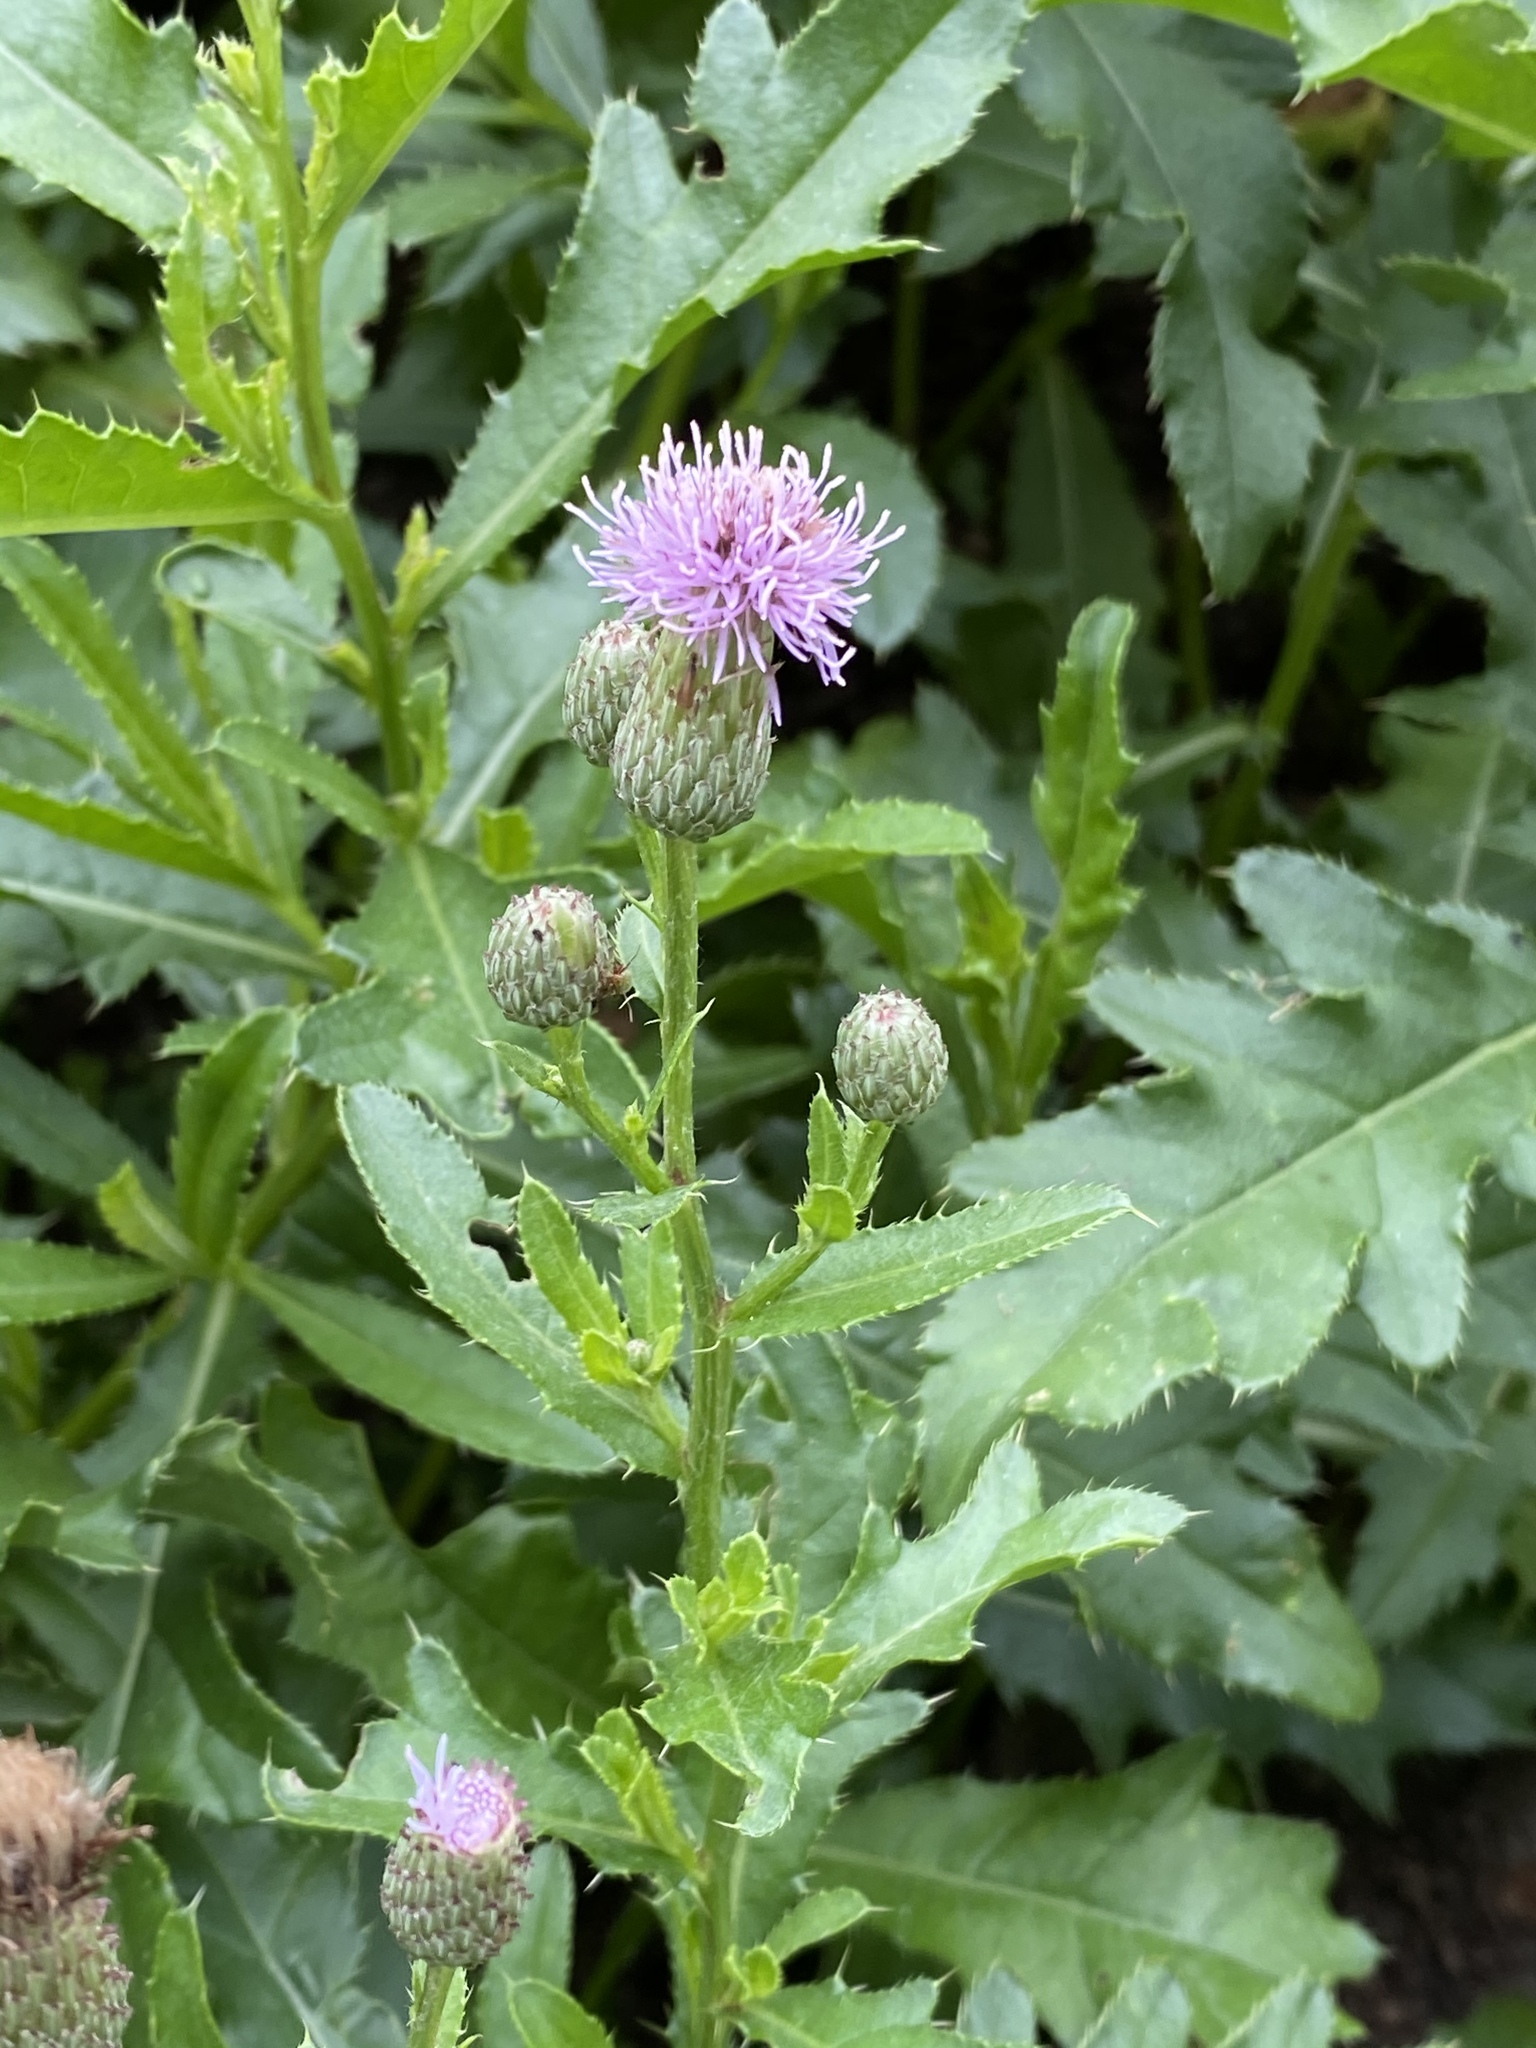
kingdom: Plantae
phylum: Tracheophyta
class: Magnoliopsida
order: Asterales
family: Asteraceae
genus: Cirsium
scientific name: Cirsium arvense
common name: Creeping thistle
